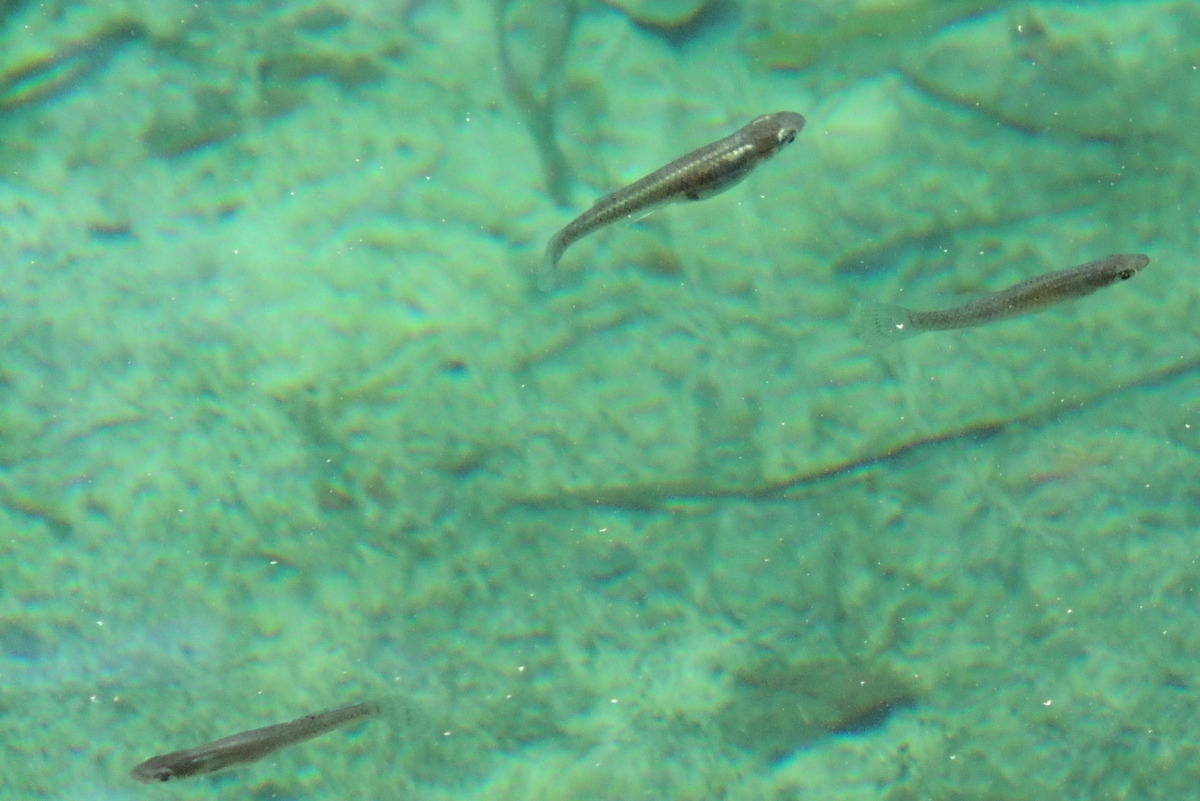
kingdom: Animalia
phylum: Chordata
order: Cyprinodontiformes
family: Poeciliidae
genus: Gambusia
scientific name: Gambusia holbrooki
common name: Eastern mosquitofish
